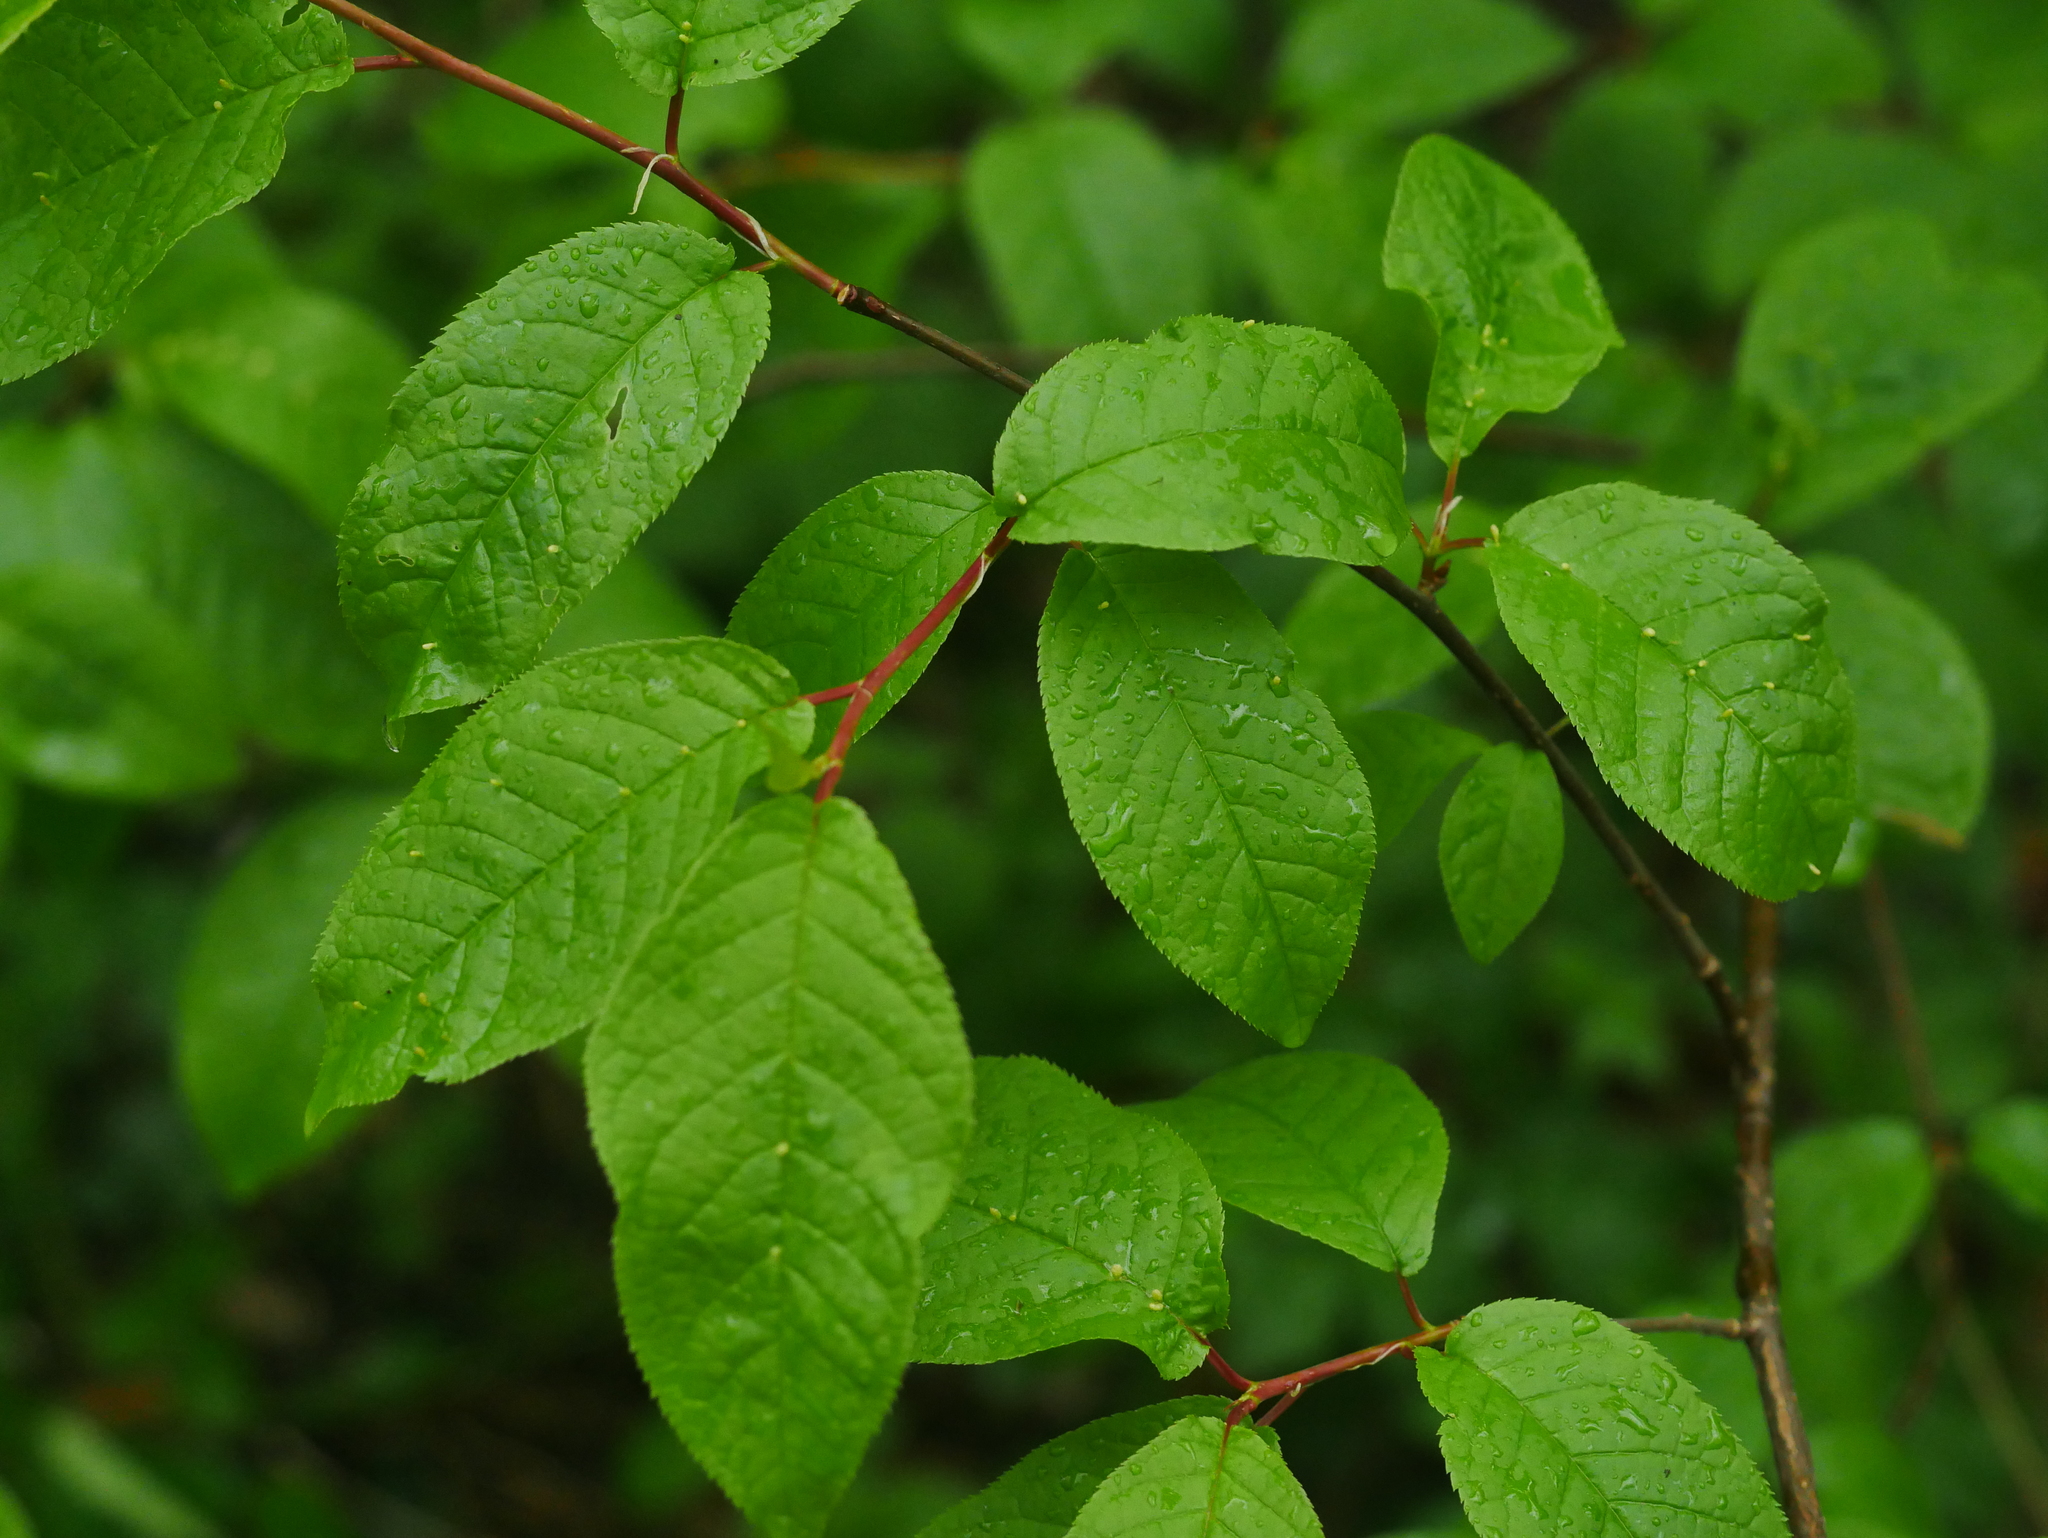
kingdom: Plantae
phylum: Tracheophyta
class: Magnoliopsida
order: Rosales
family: Rosaceae
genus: Prunus
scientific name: Prunus padus
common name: Bird cherry
